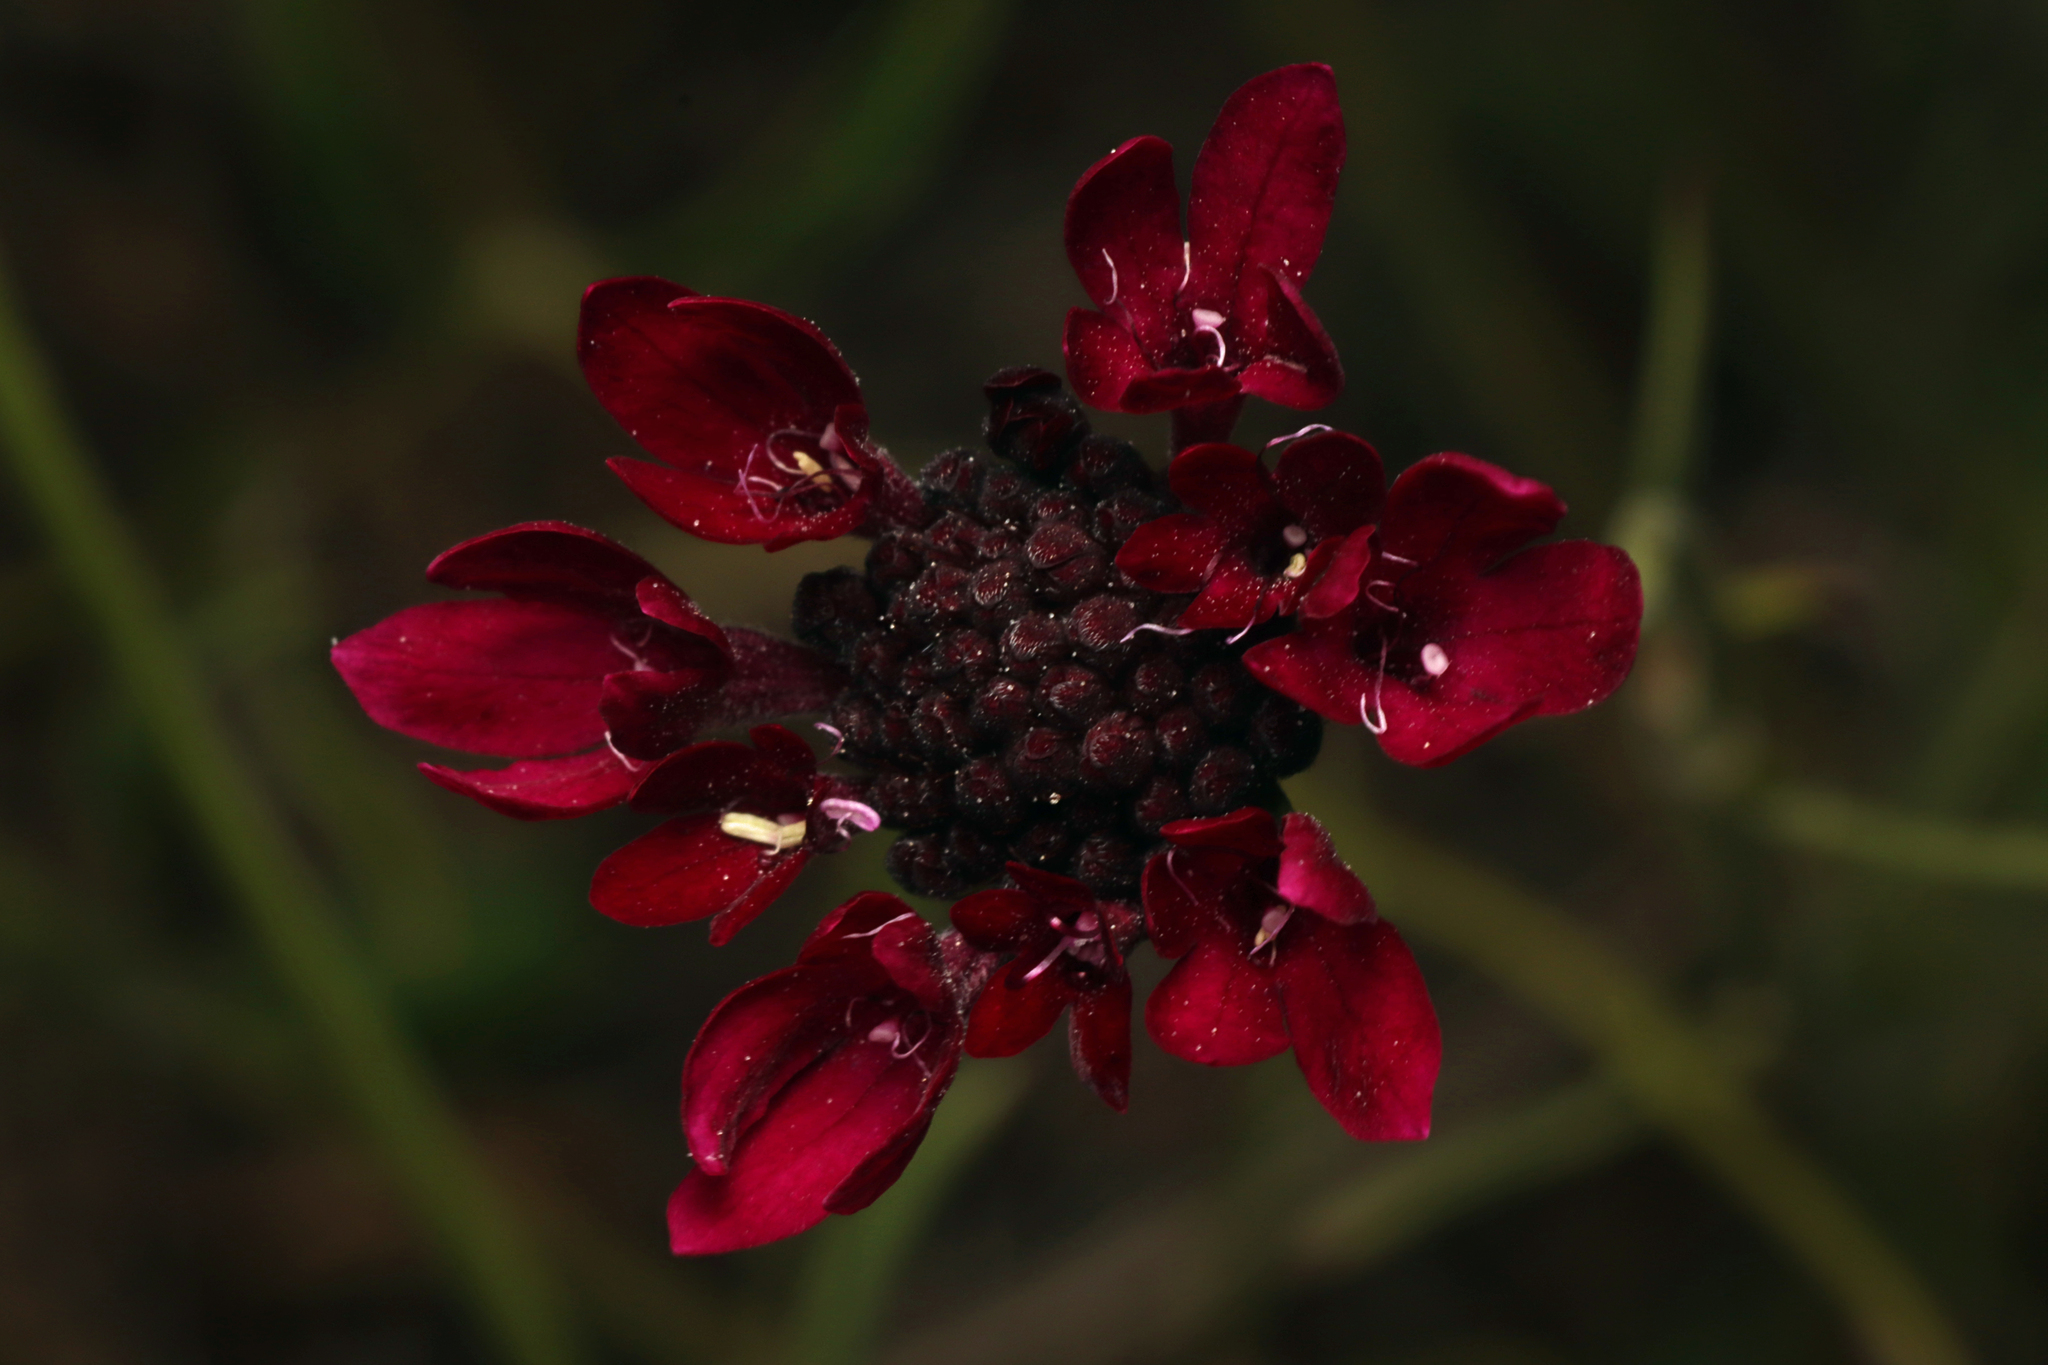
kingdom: Plantae
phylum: Tracheophyta
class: Magnoliopsida
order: Dipsacales
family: Caprifoliaceae
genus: Sixalix
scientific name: Sixalix atropurpurea
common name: Sweet scabious
